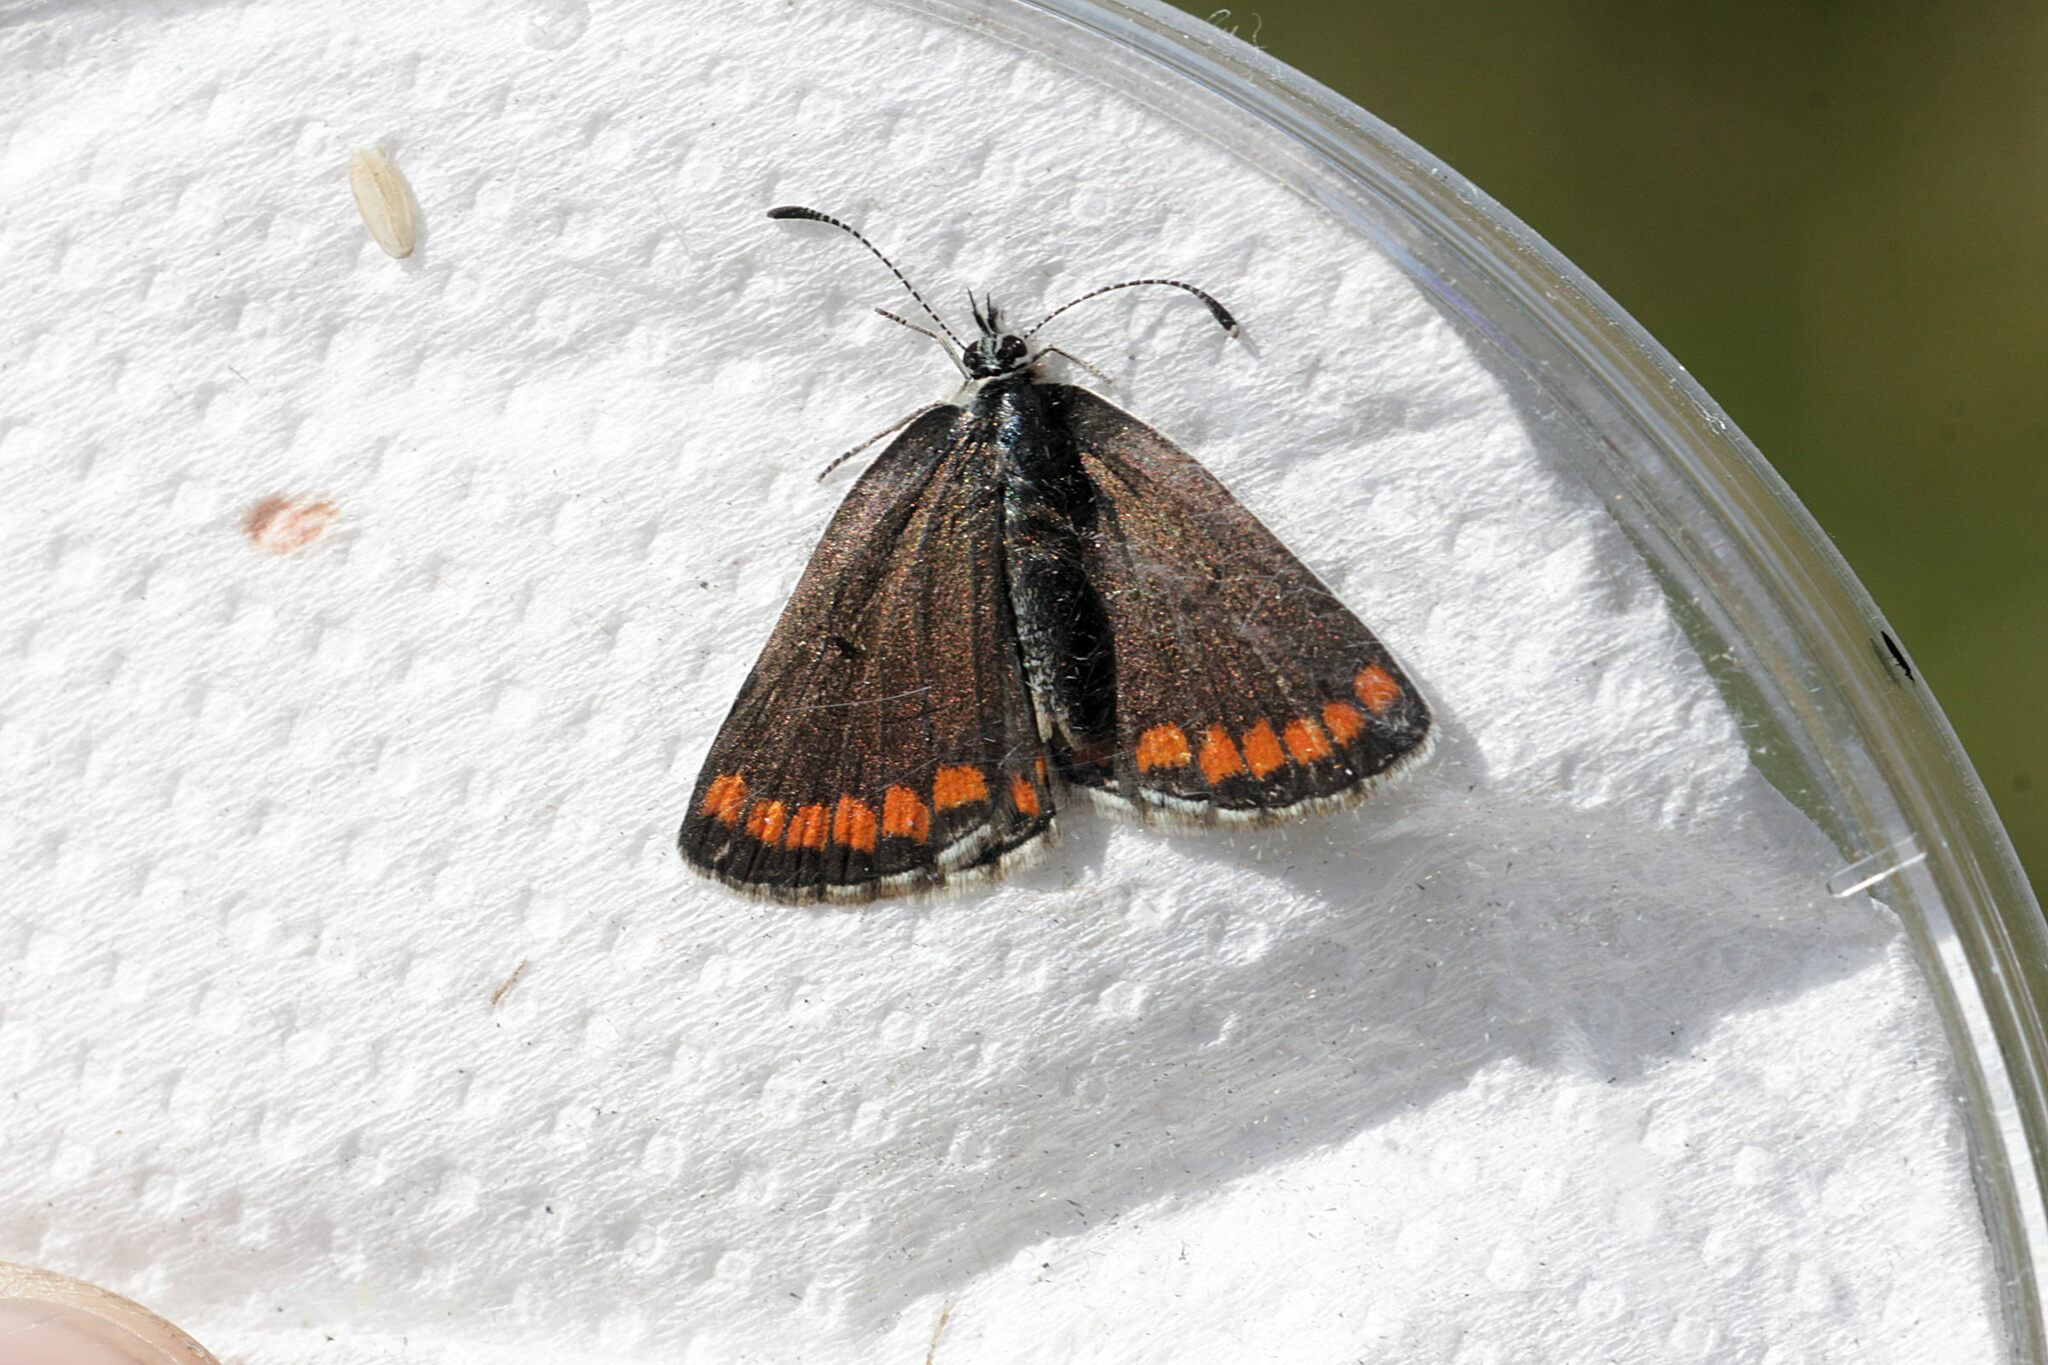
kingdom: Animalia
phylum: Arthropoda
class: Insecta
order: Lepidoptera
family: Lycaenidae
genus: Aricia
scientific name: Aricia agestis
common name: Brown argus
